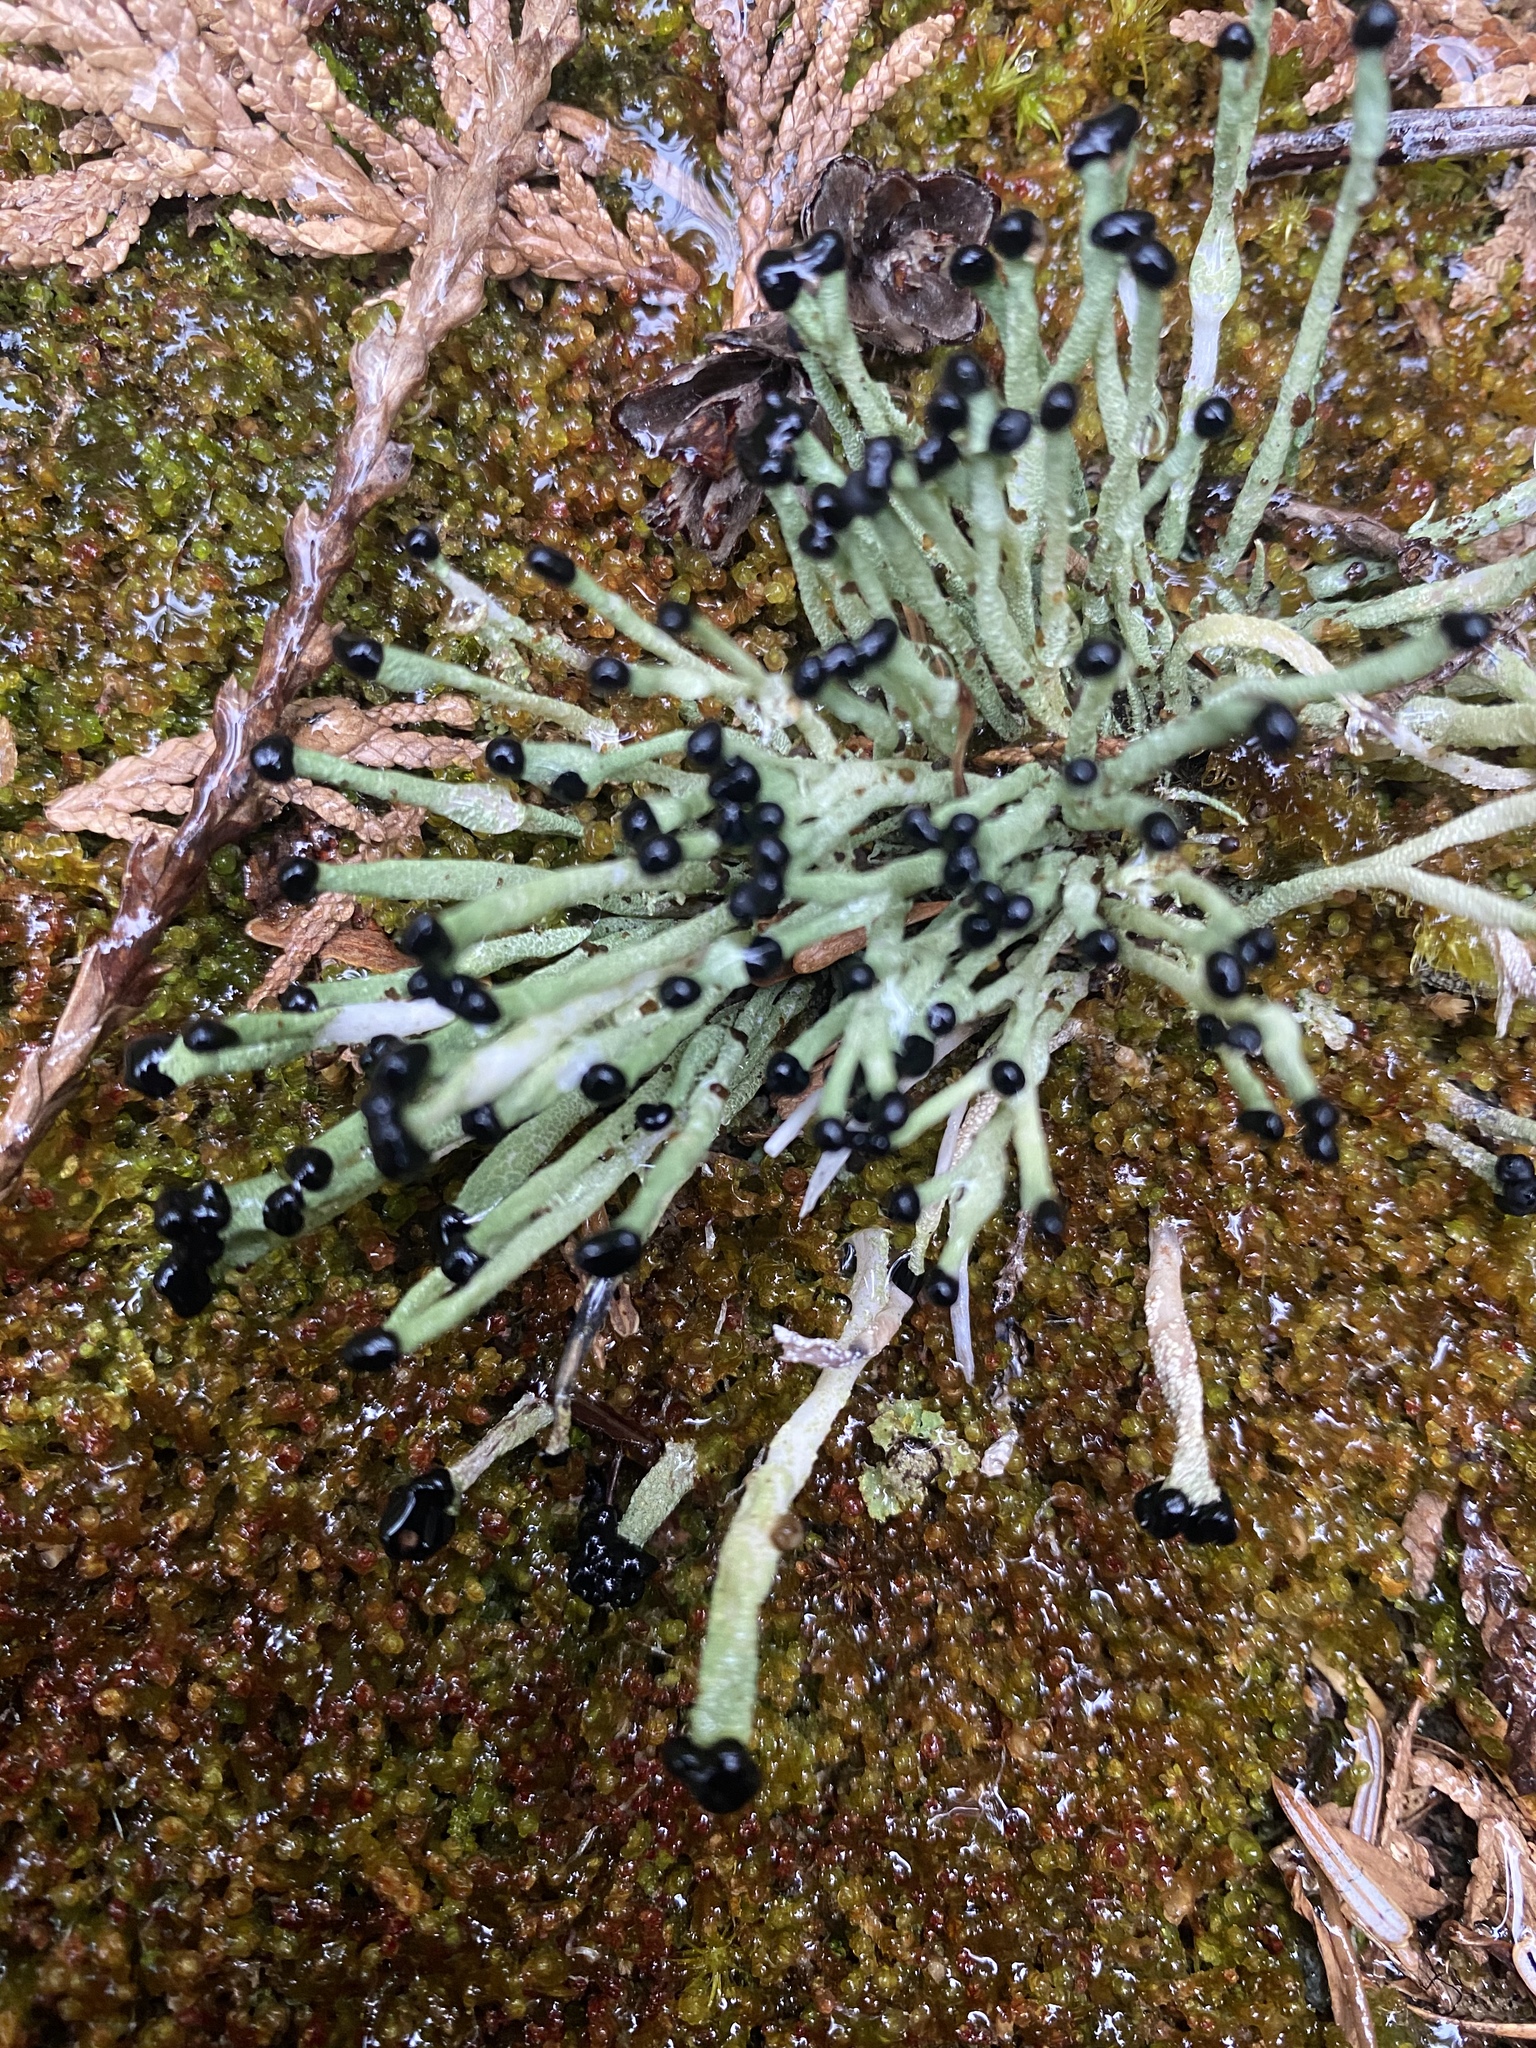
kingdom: Fungi
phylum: Ascomycota
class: Lecanoromycetes
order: Lecanorales
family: Cladoniaceae
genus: Pilophorus
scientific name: Pilophorus acicularis
